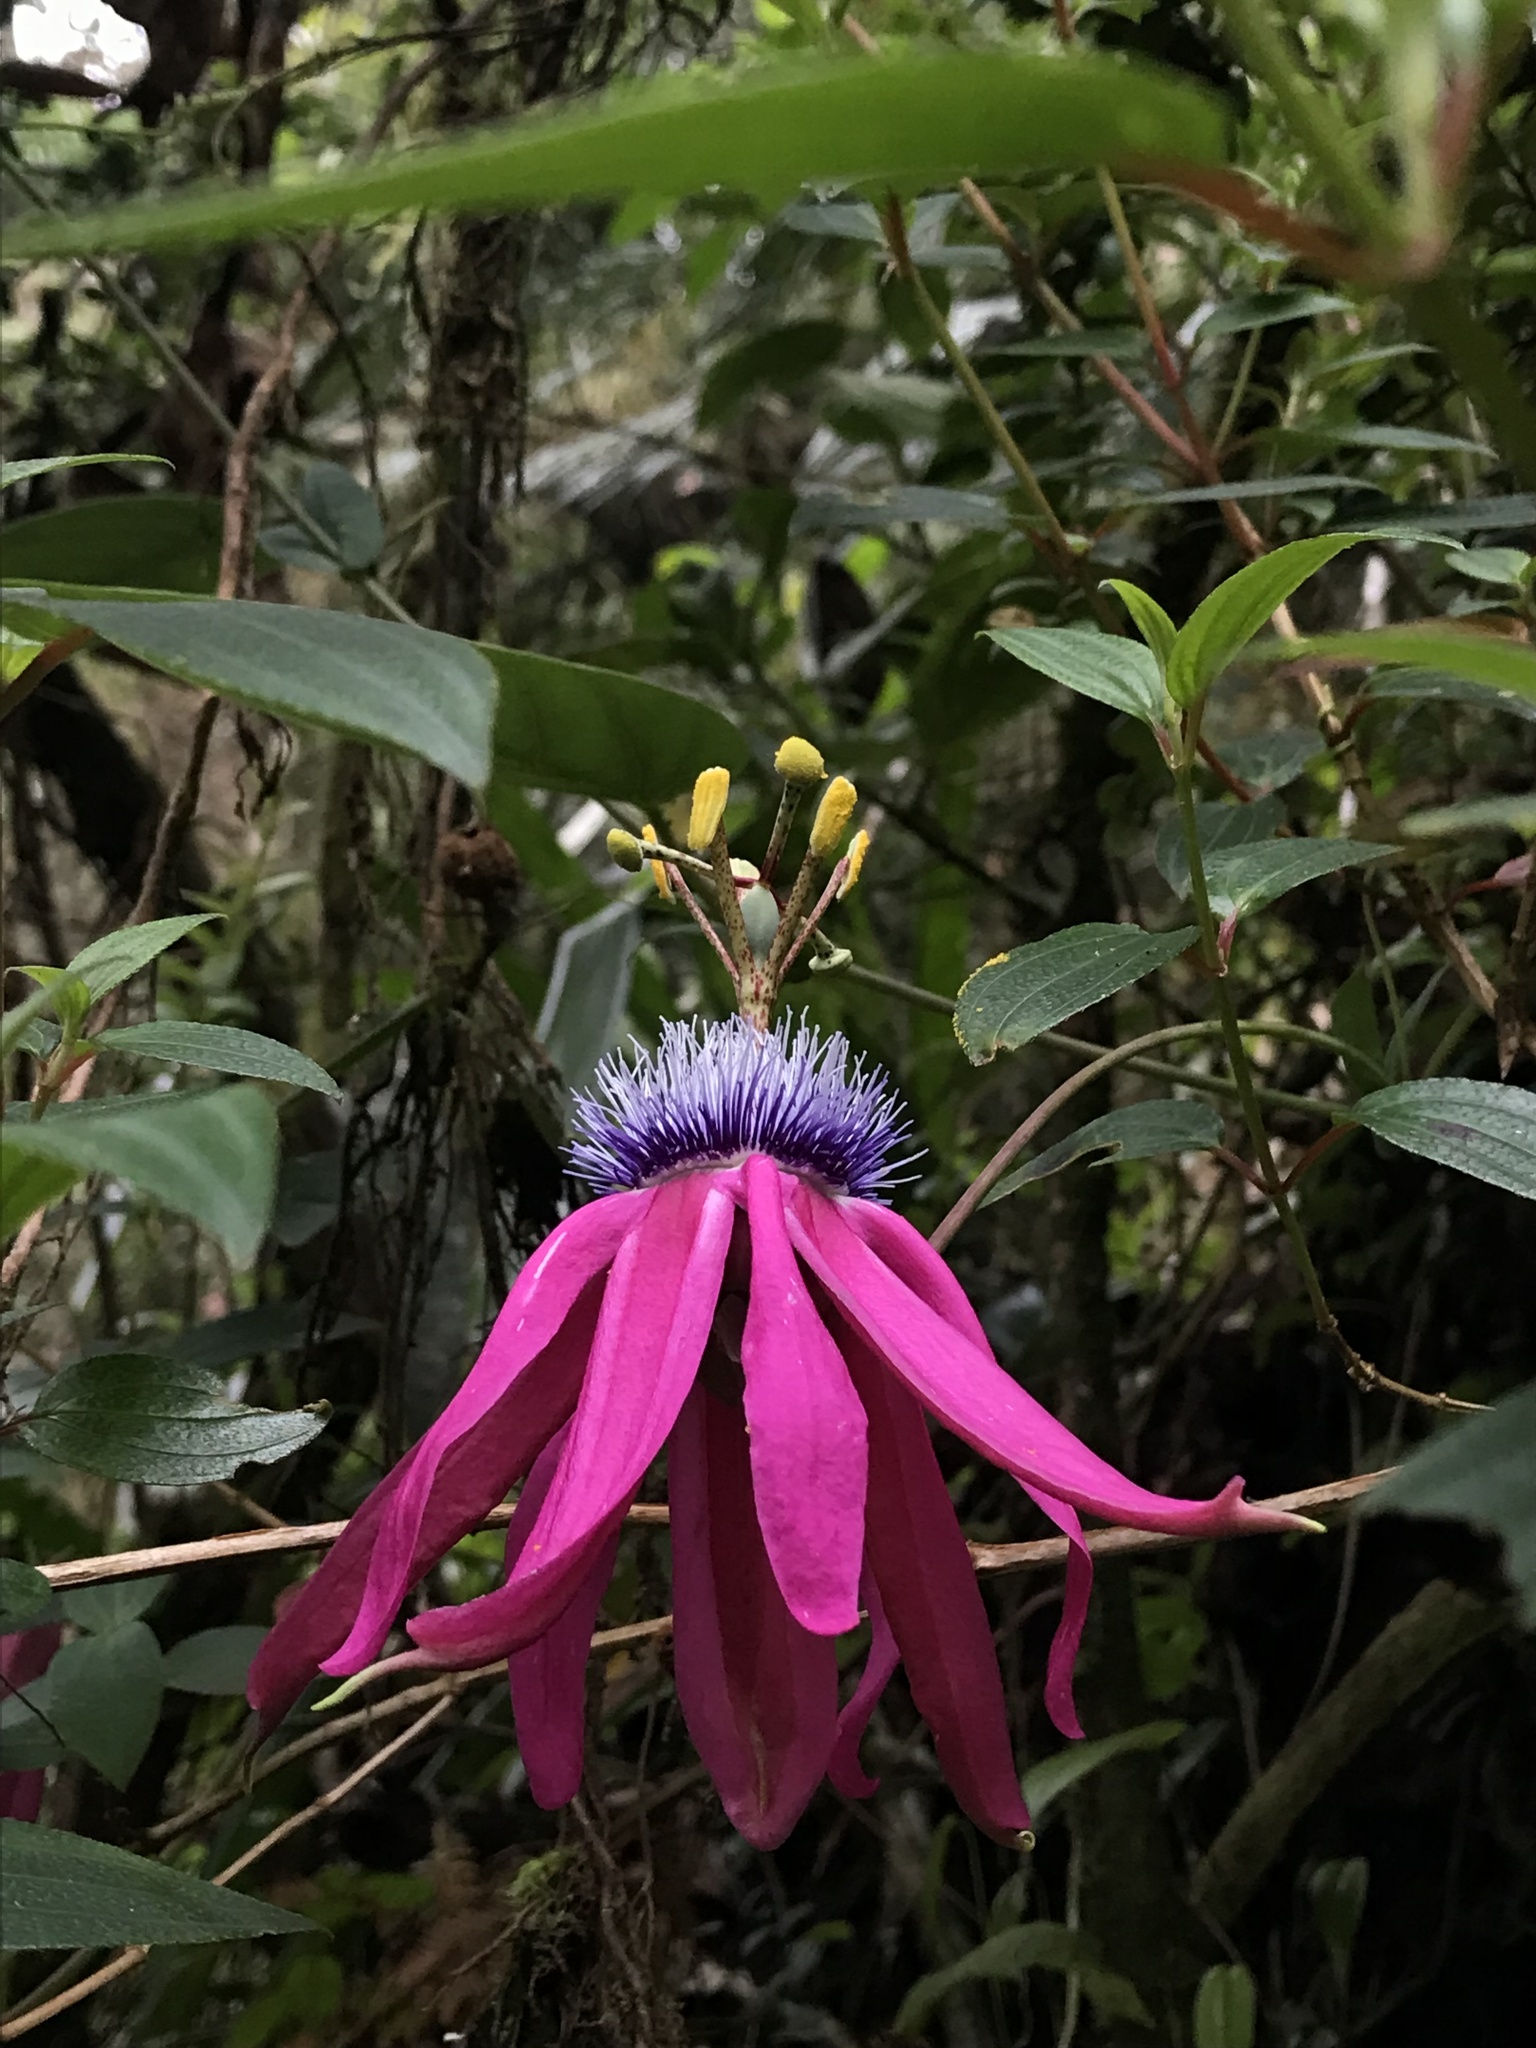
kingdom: Plantae
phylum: Tracheophyta
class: Magnoliopsida
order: Malpighiales
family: Passifloraceae
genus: Passiflora
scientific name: Passiflora longipes
